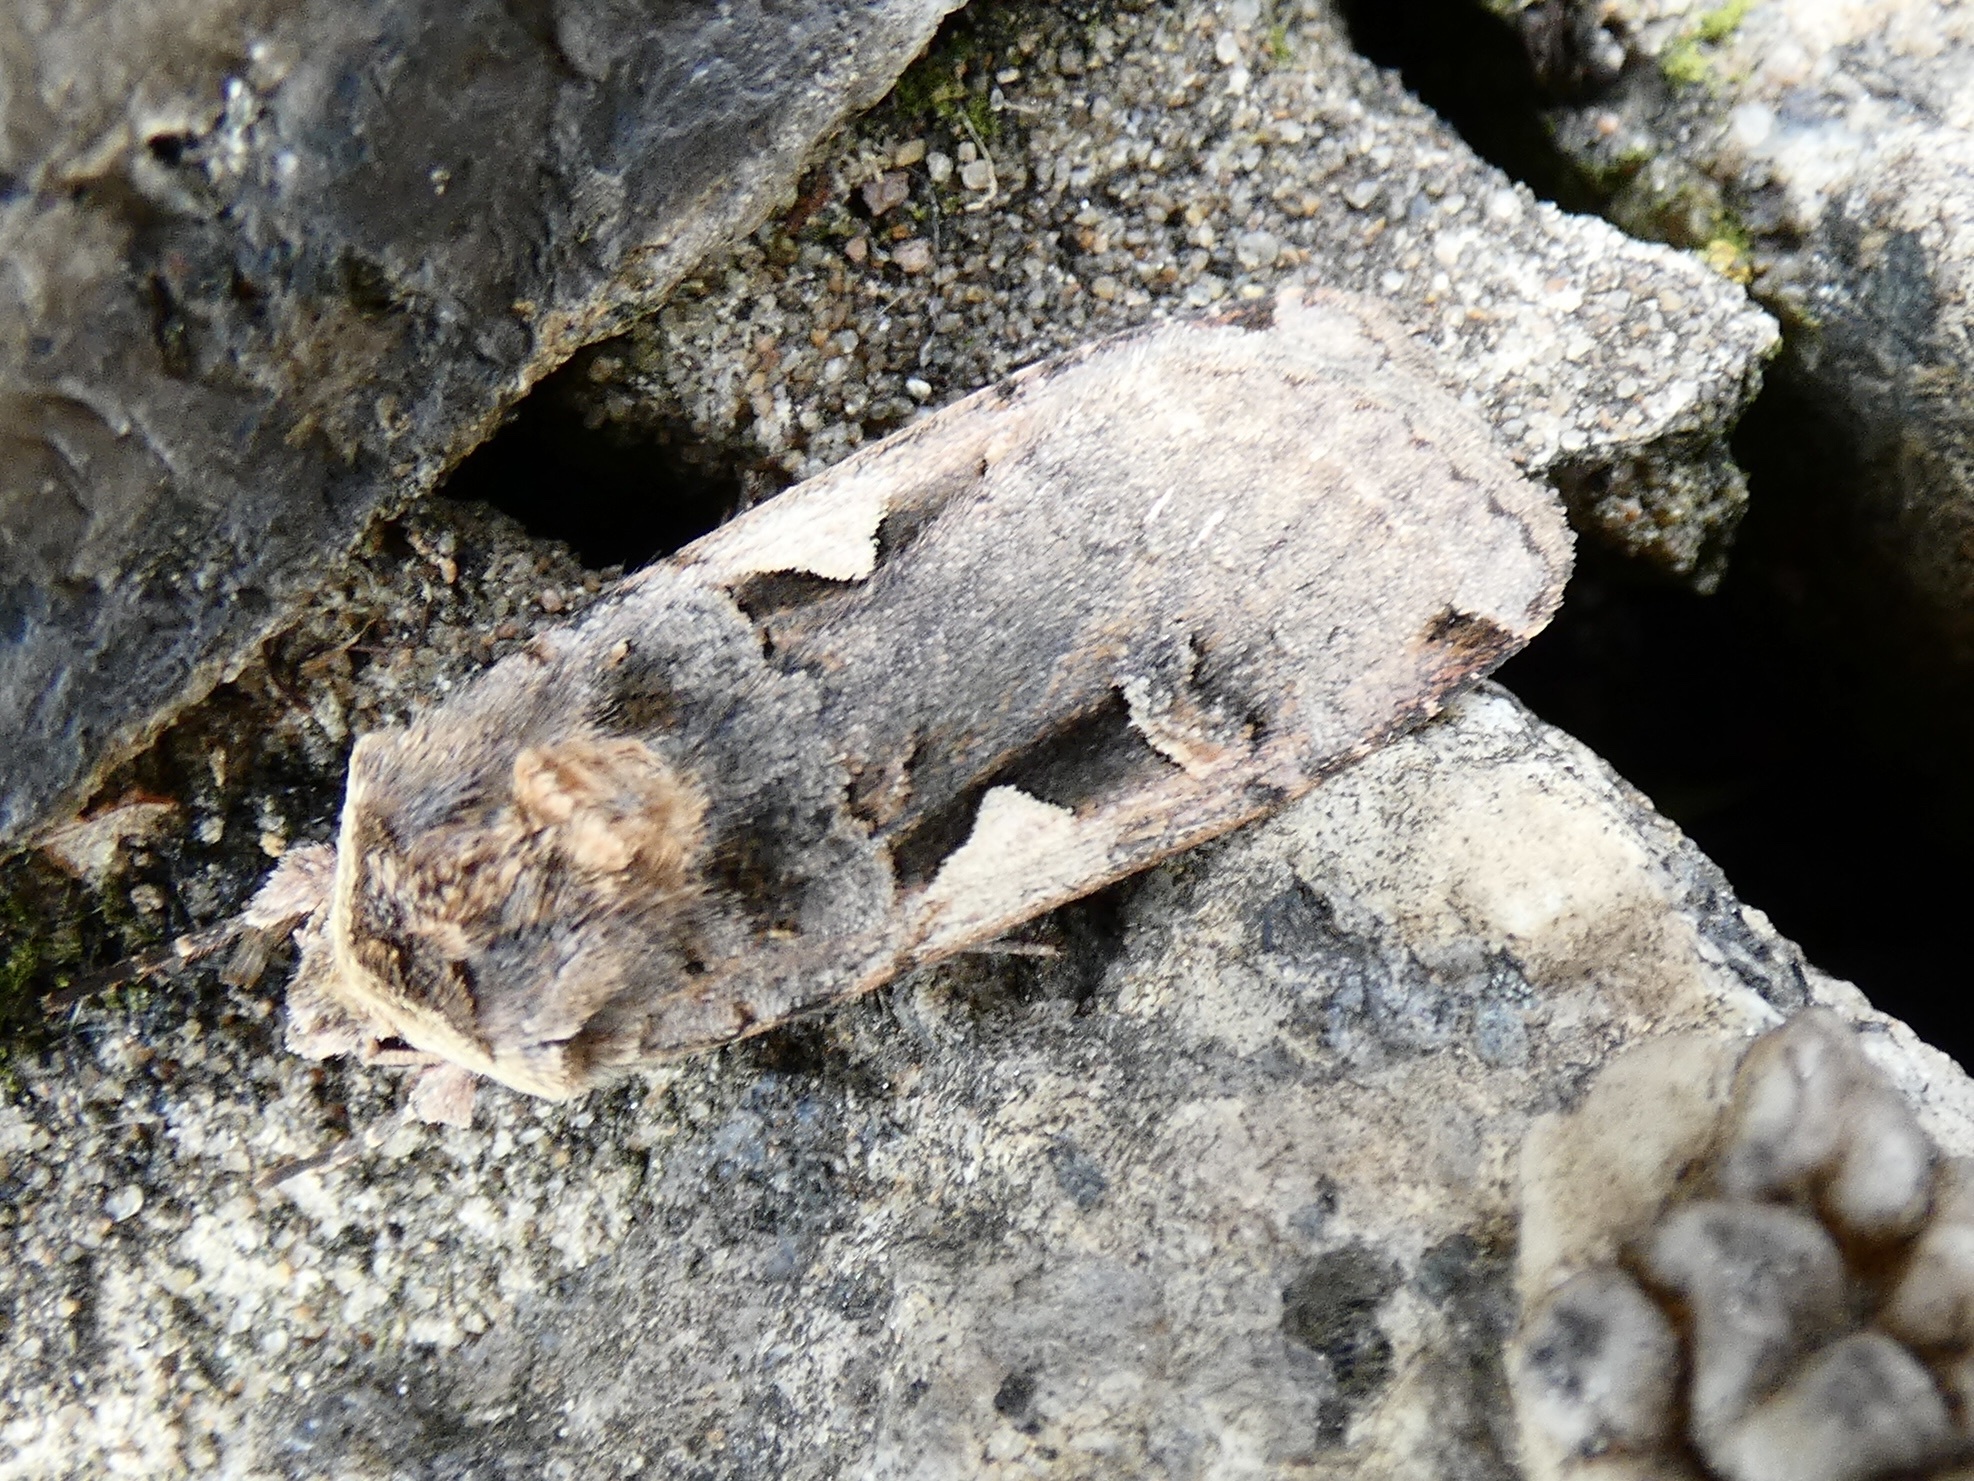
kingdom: Animalia
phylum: Arthropoda
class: Insecta
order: Lepidoptera
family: Noctuidae
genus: Xestia
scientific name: Xestia c-nigrum
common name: Setaceous hebrew character
